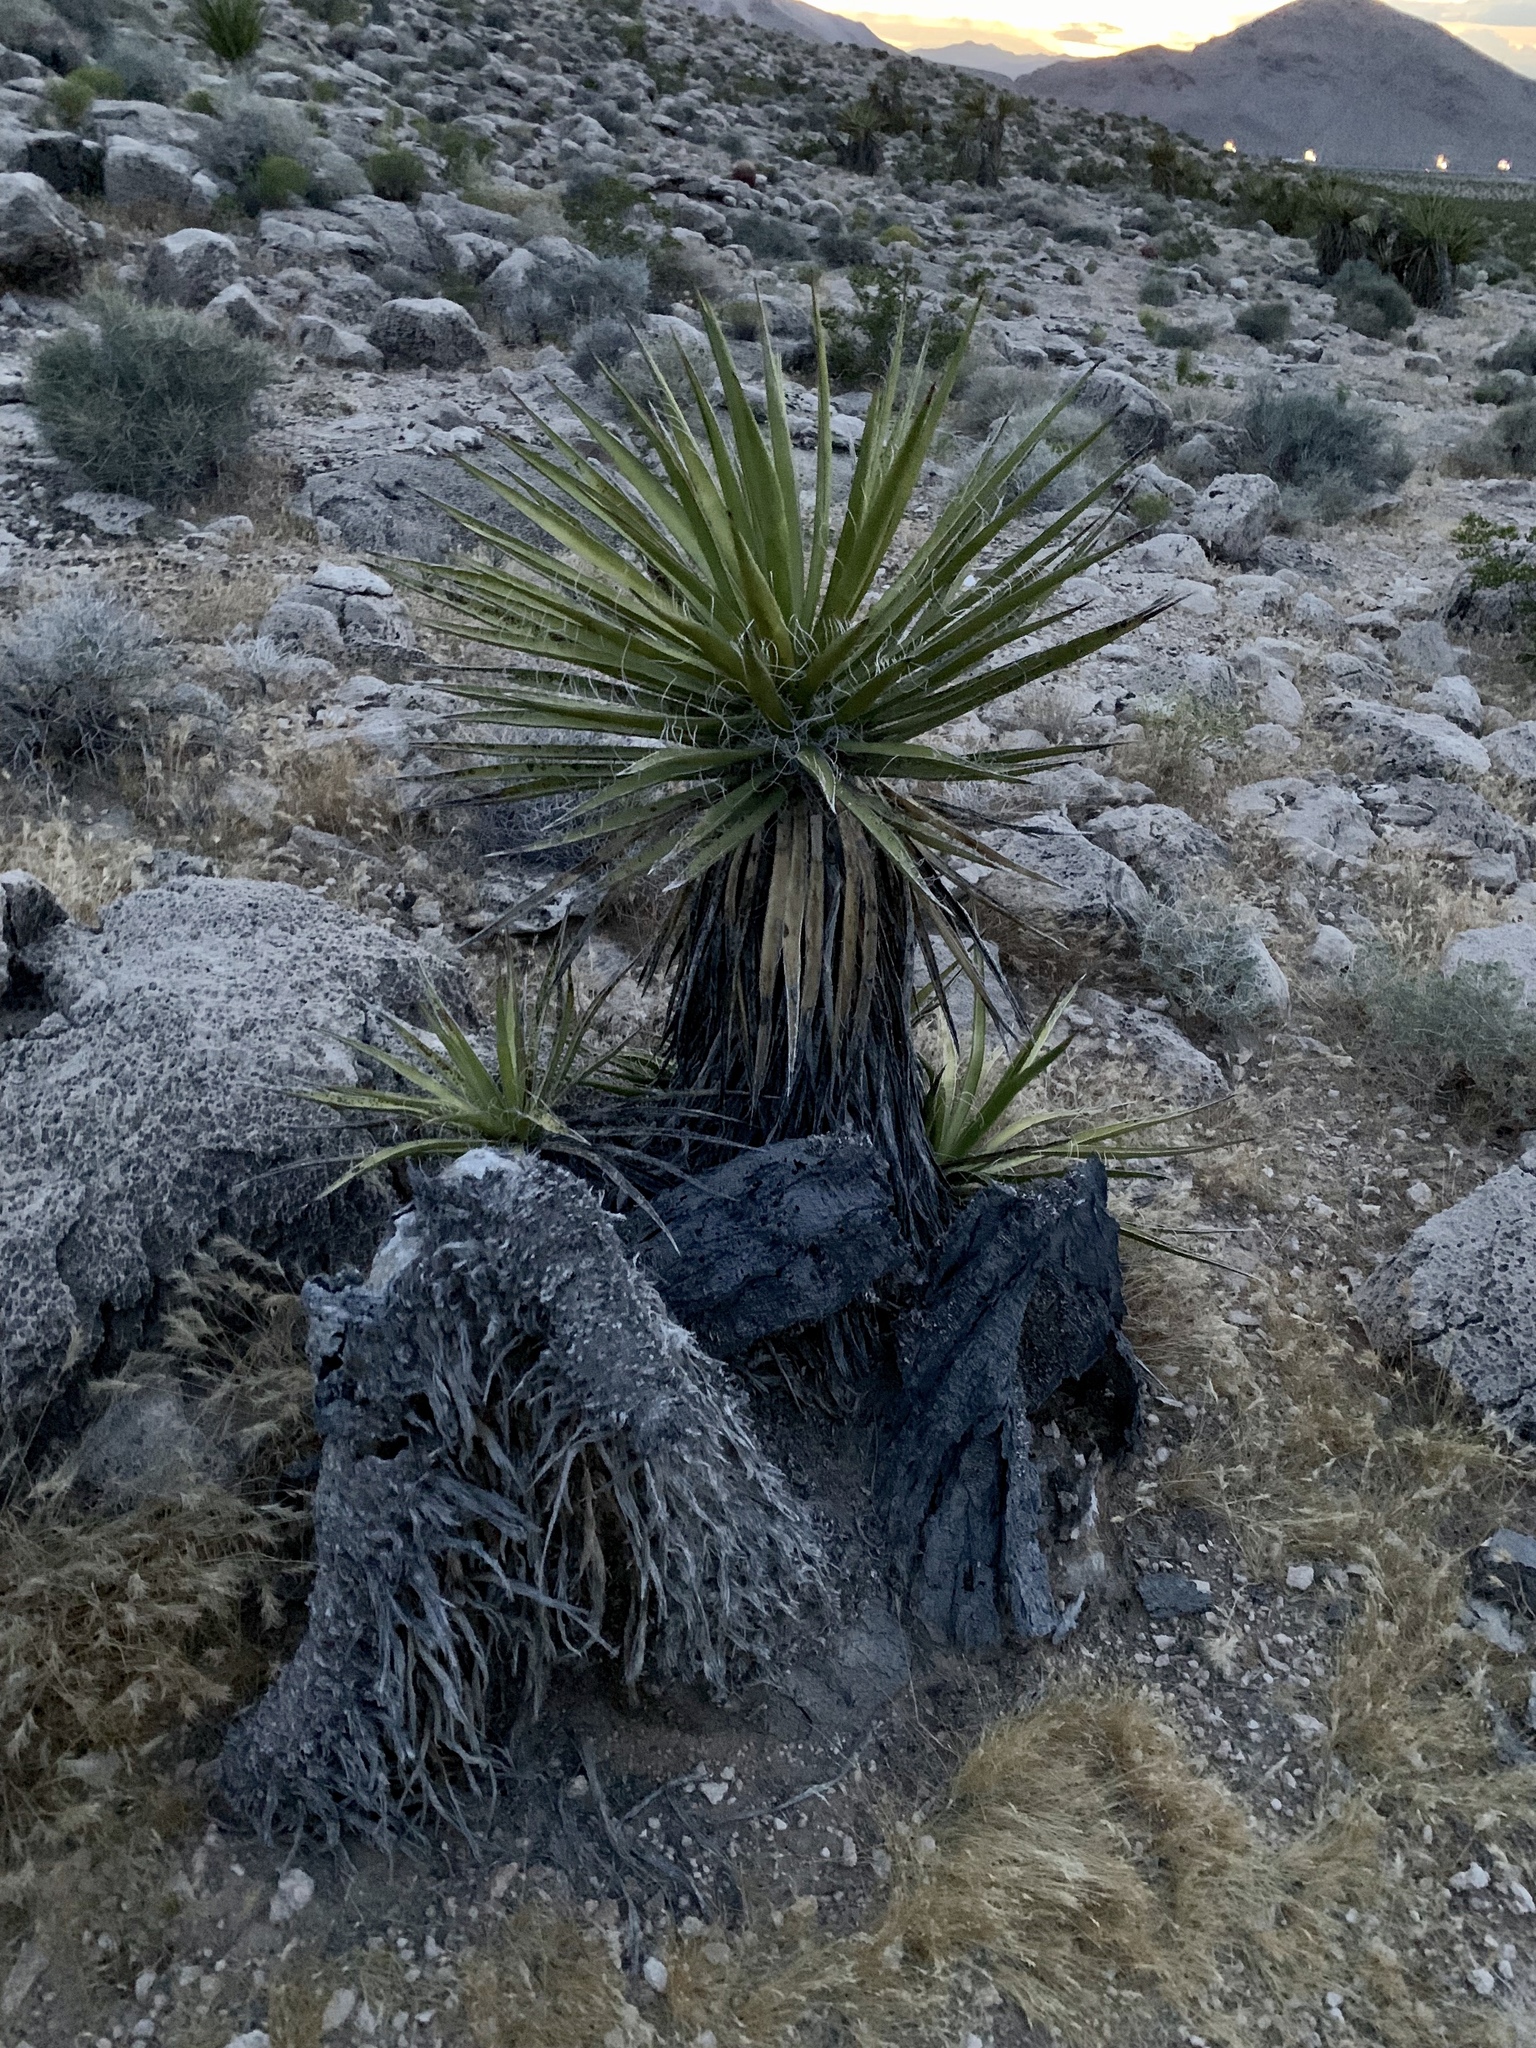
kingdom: Plantae
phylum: Tracheophyta
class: Liliopsida
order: Asparagales
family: Asparagaceae
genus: Yucca
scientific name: Yucca schidigera
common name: Mojave yucca
